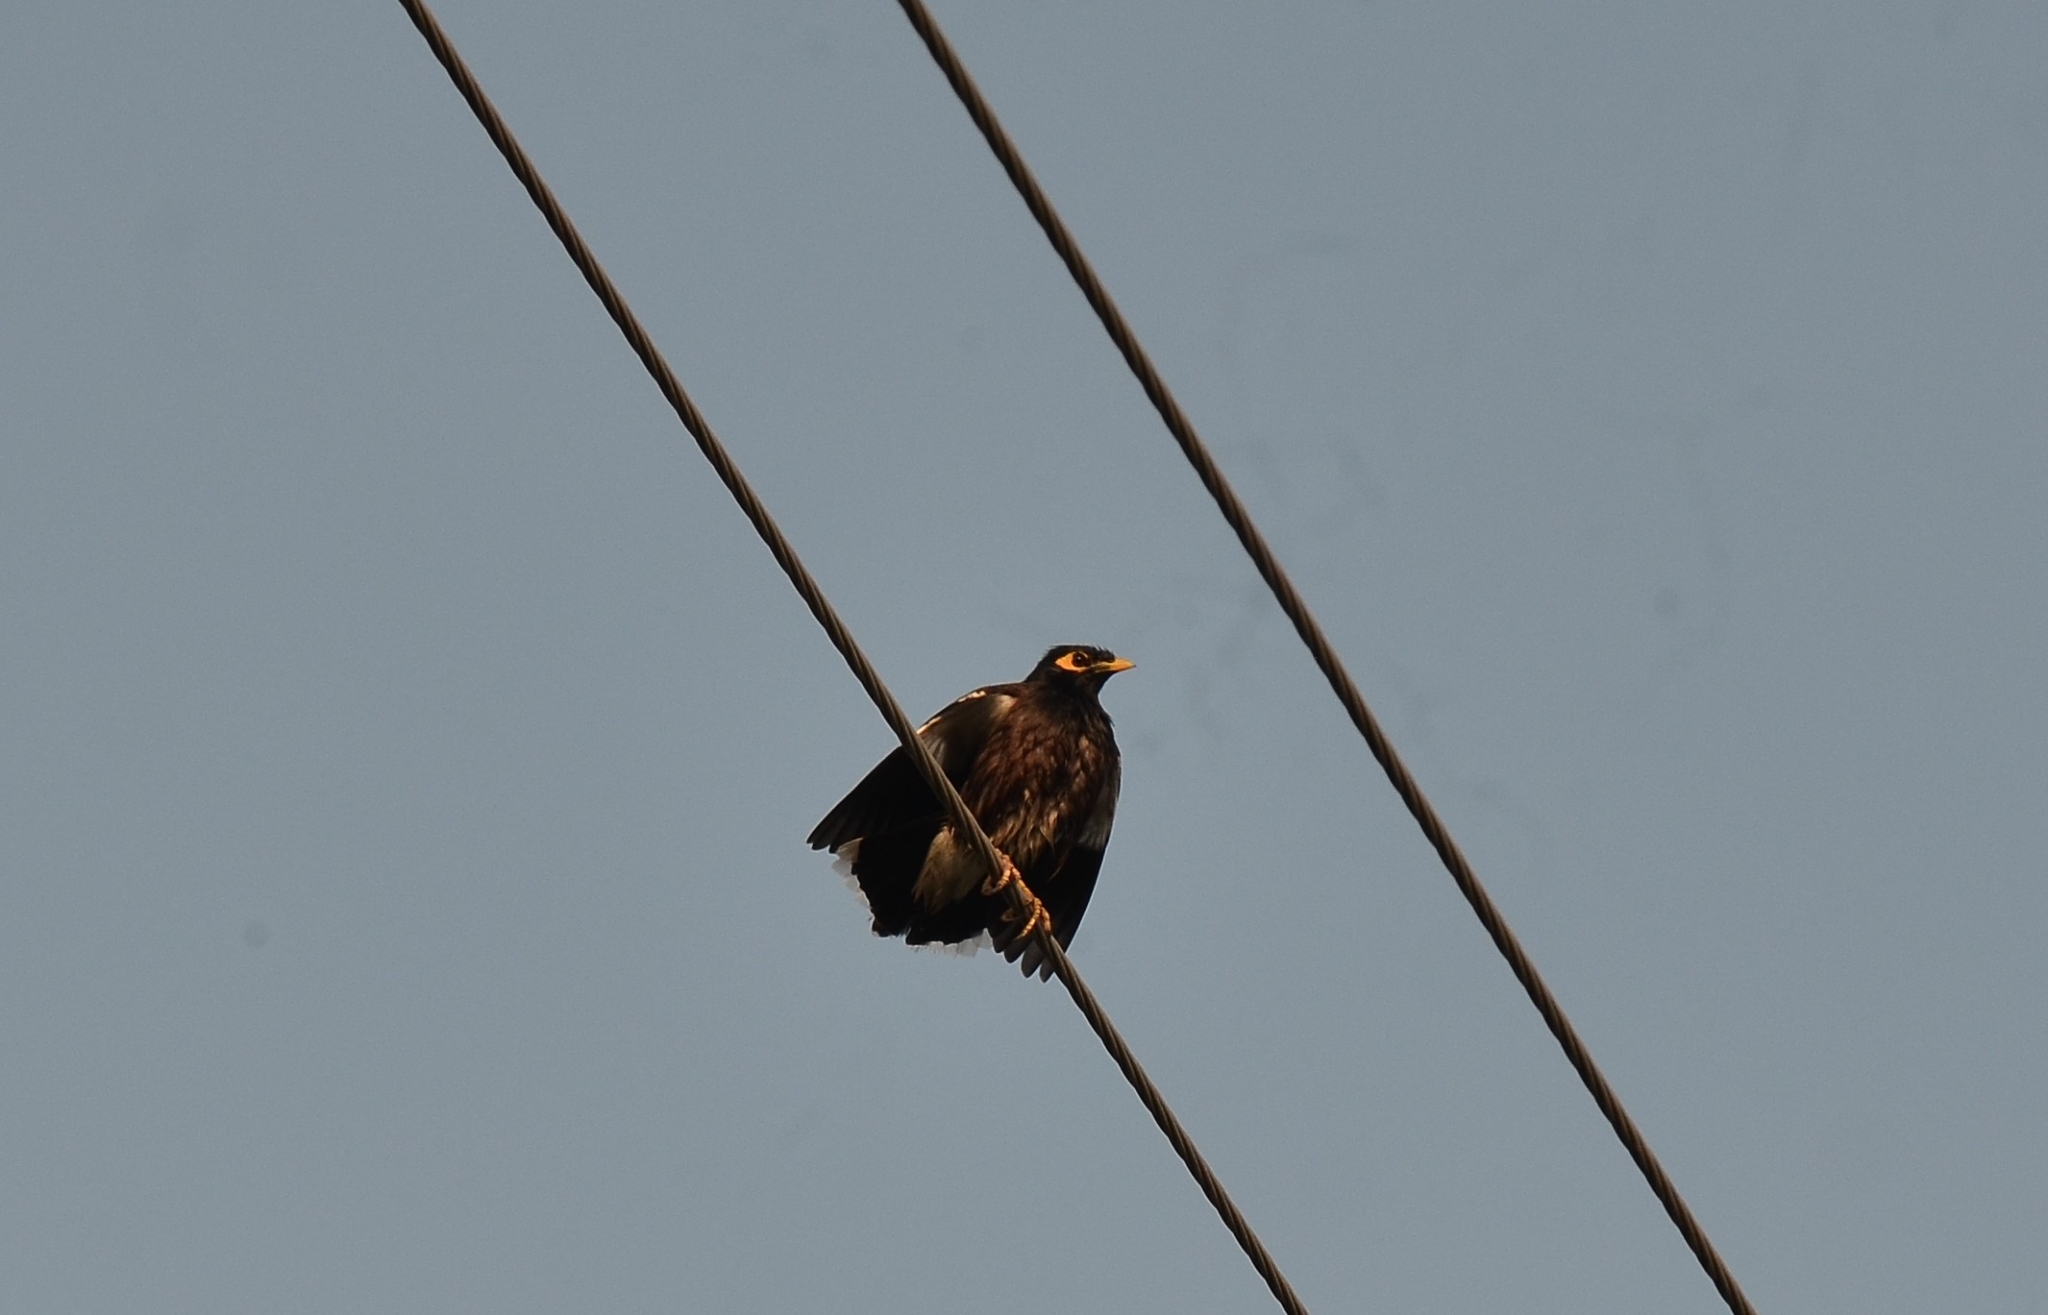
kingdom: Animalia
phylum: Chordata
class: Aves
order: Passeriformes
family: Sturnidae
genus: Acridotheres
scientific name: Acridotheres tristis
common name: Common myna
